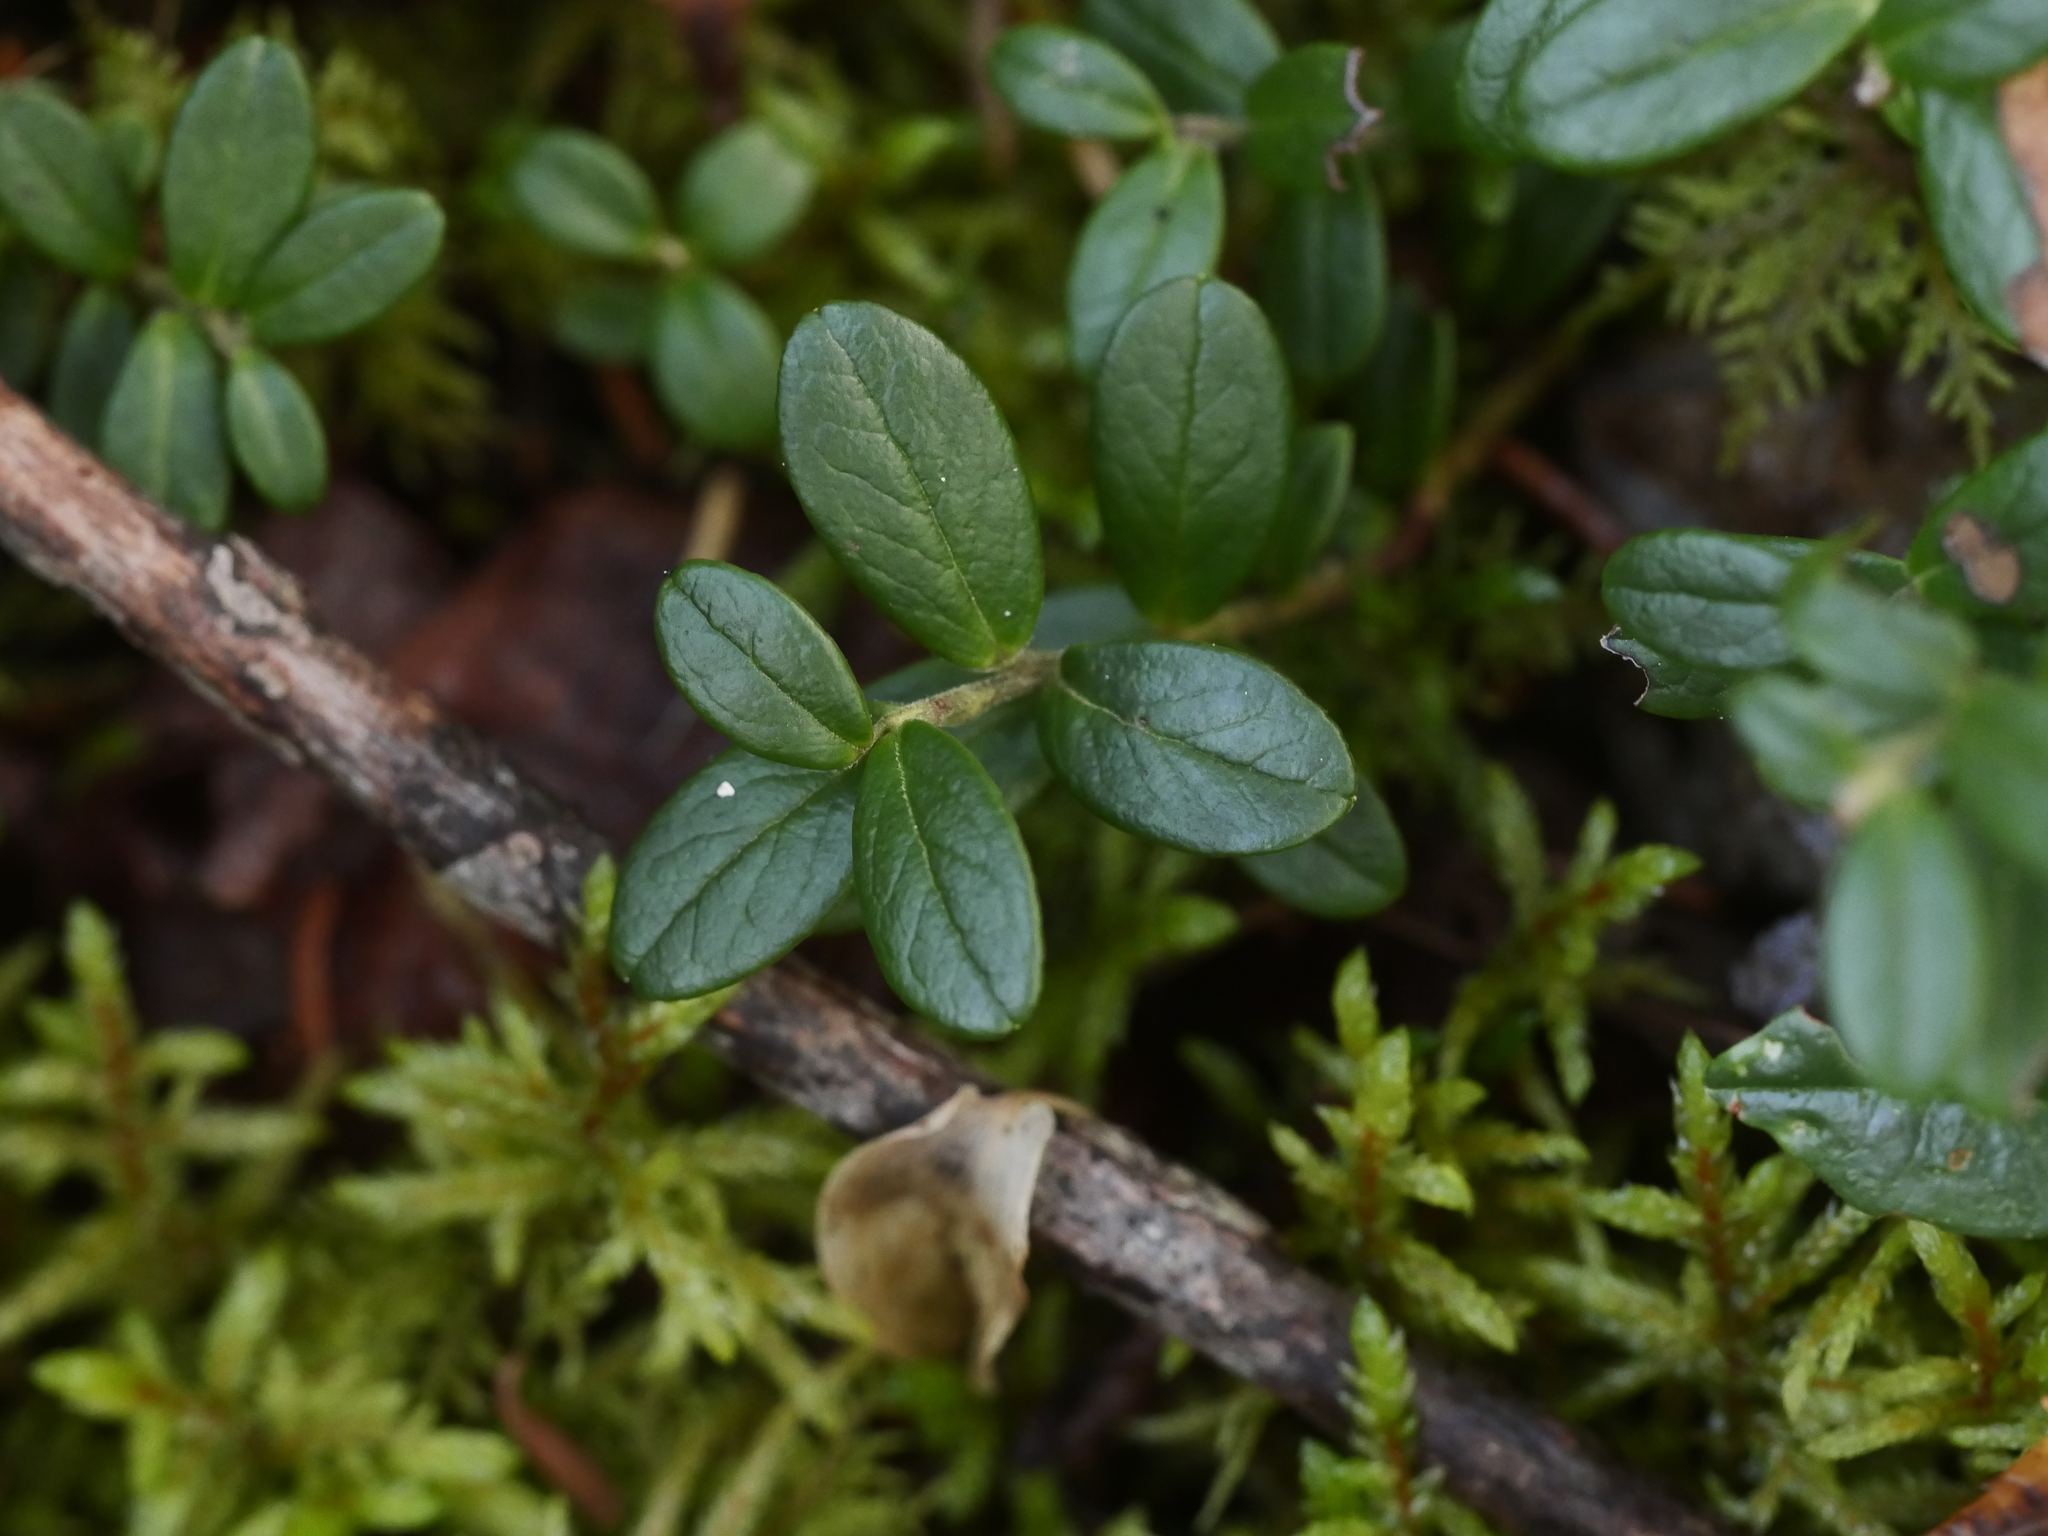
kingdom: Plantae
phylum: Tracheophyta
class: Magnoliopsida
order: Ericales
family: Ericaceae
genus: Vaccinium
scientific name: Vaccinium vitis-idaea
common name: Cowberry
